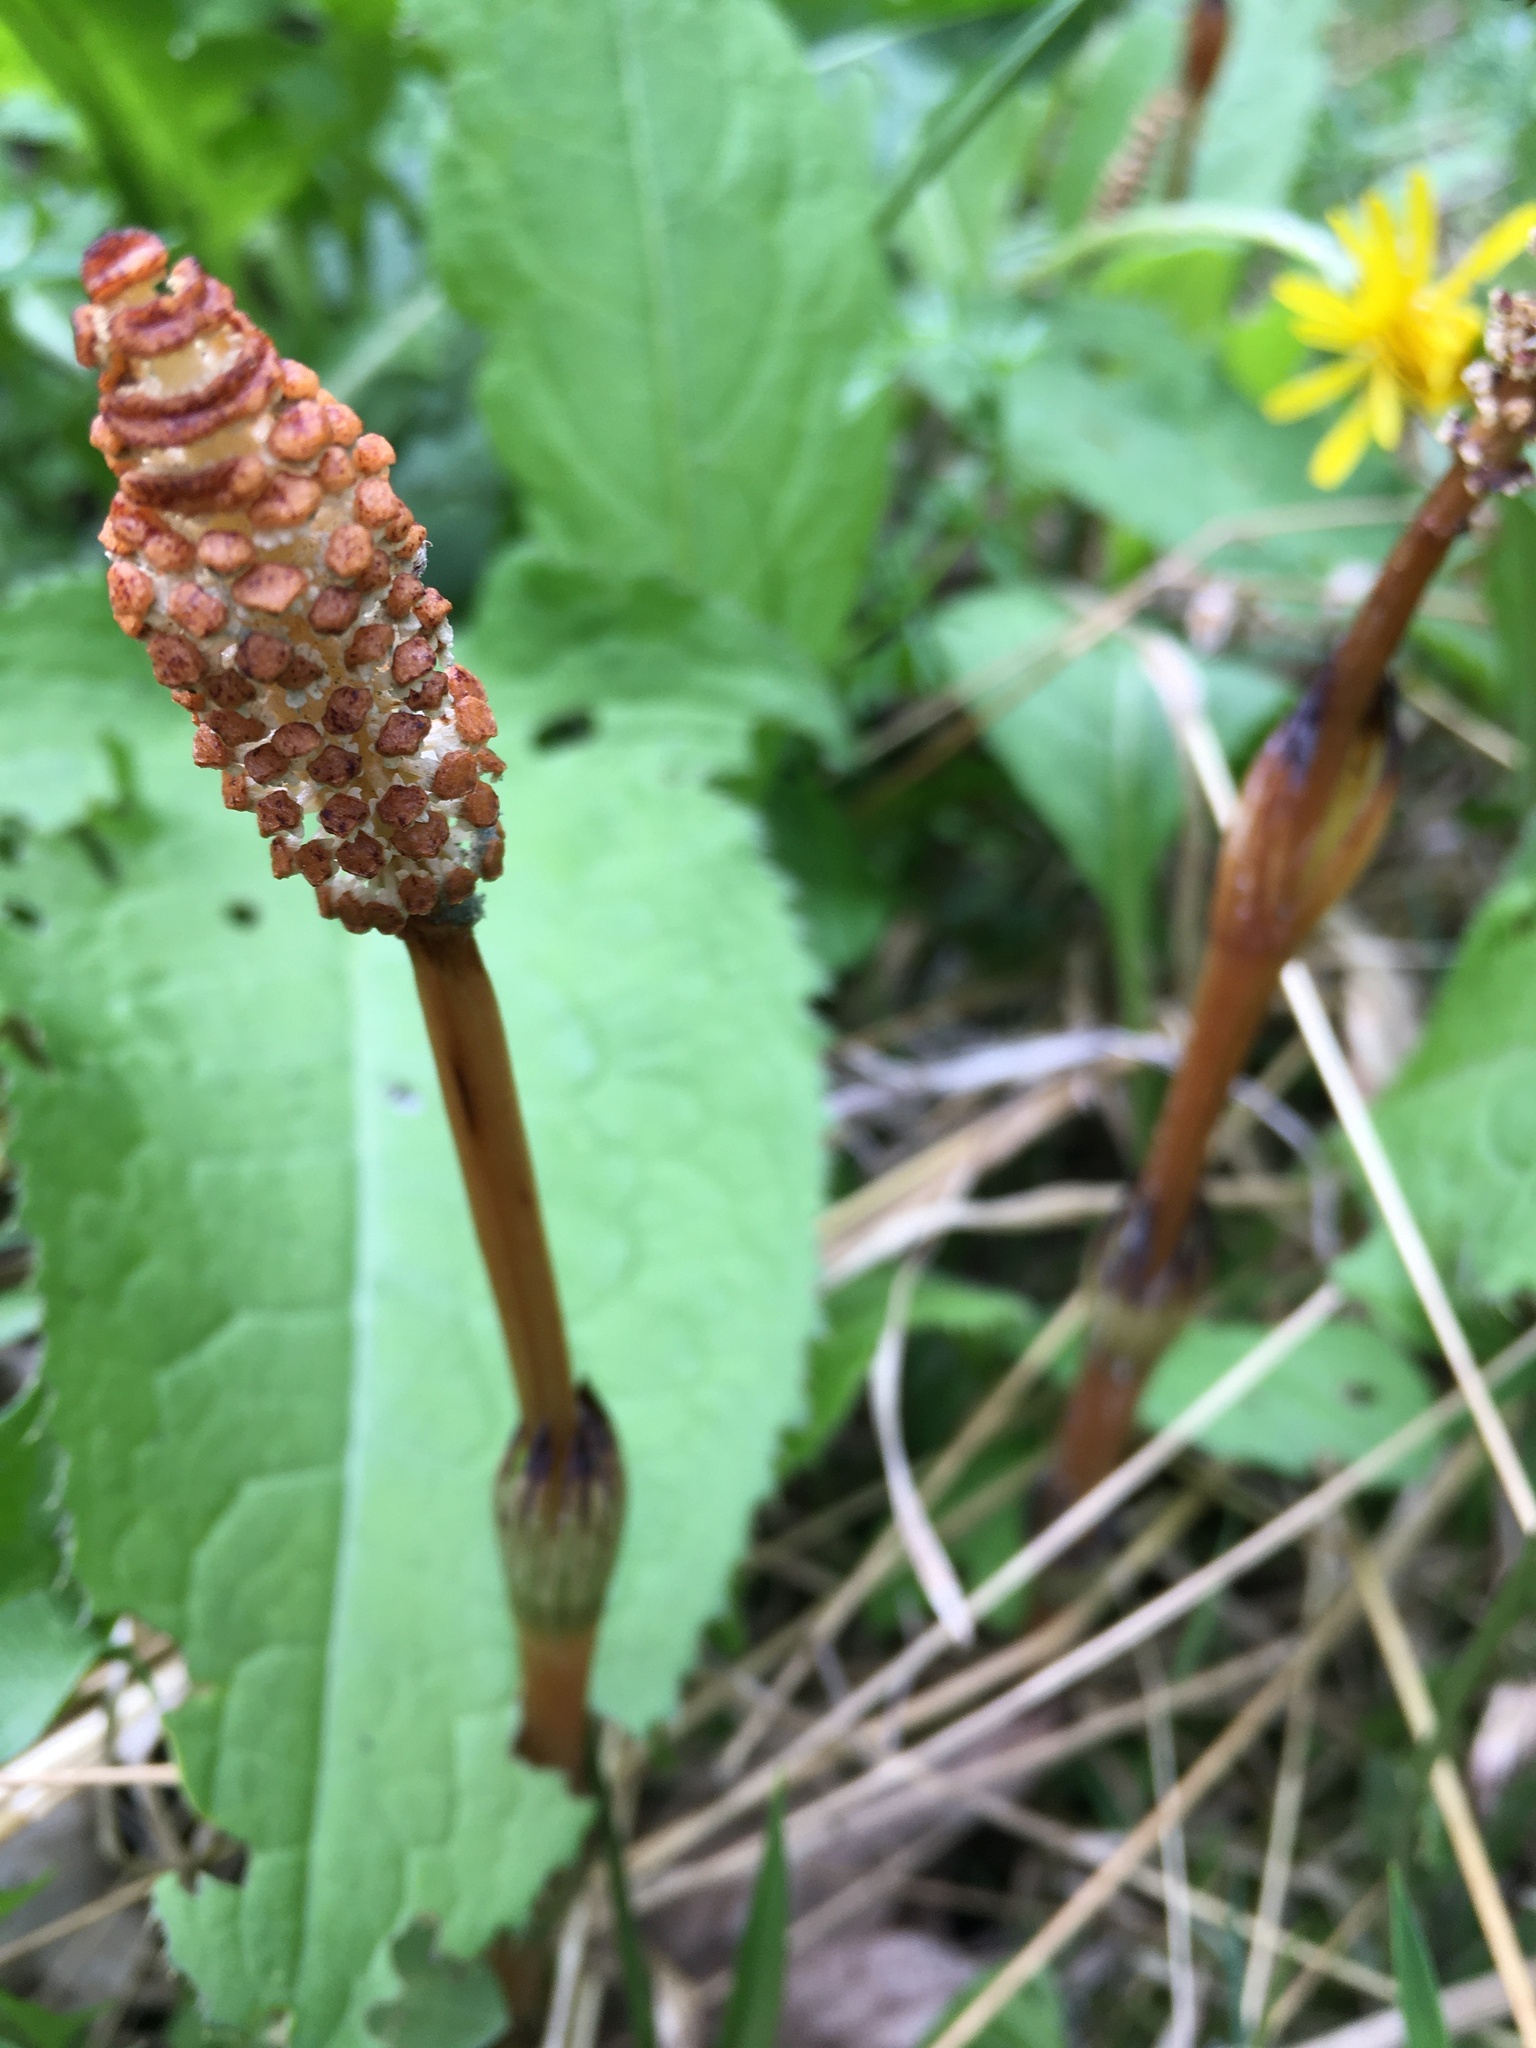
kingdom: Plantae
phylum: Tracheophyta
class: Polypodiopsida
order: Equisetales
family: Equisetaceae
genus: Equisetum
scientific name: Equisetum arvense
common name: Field horsetail
